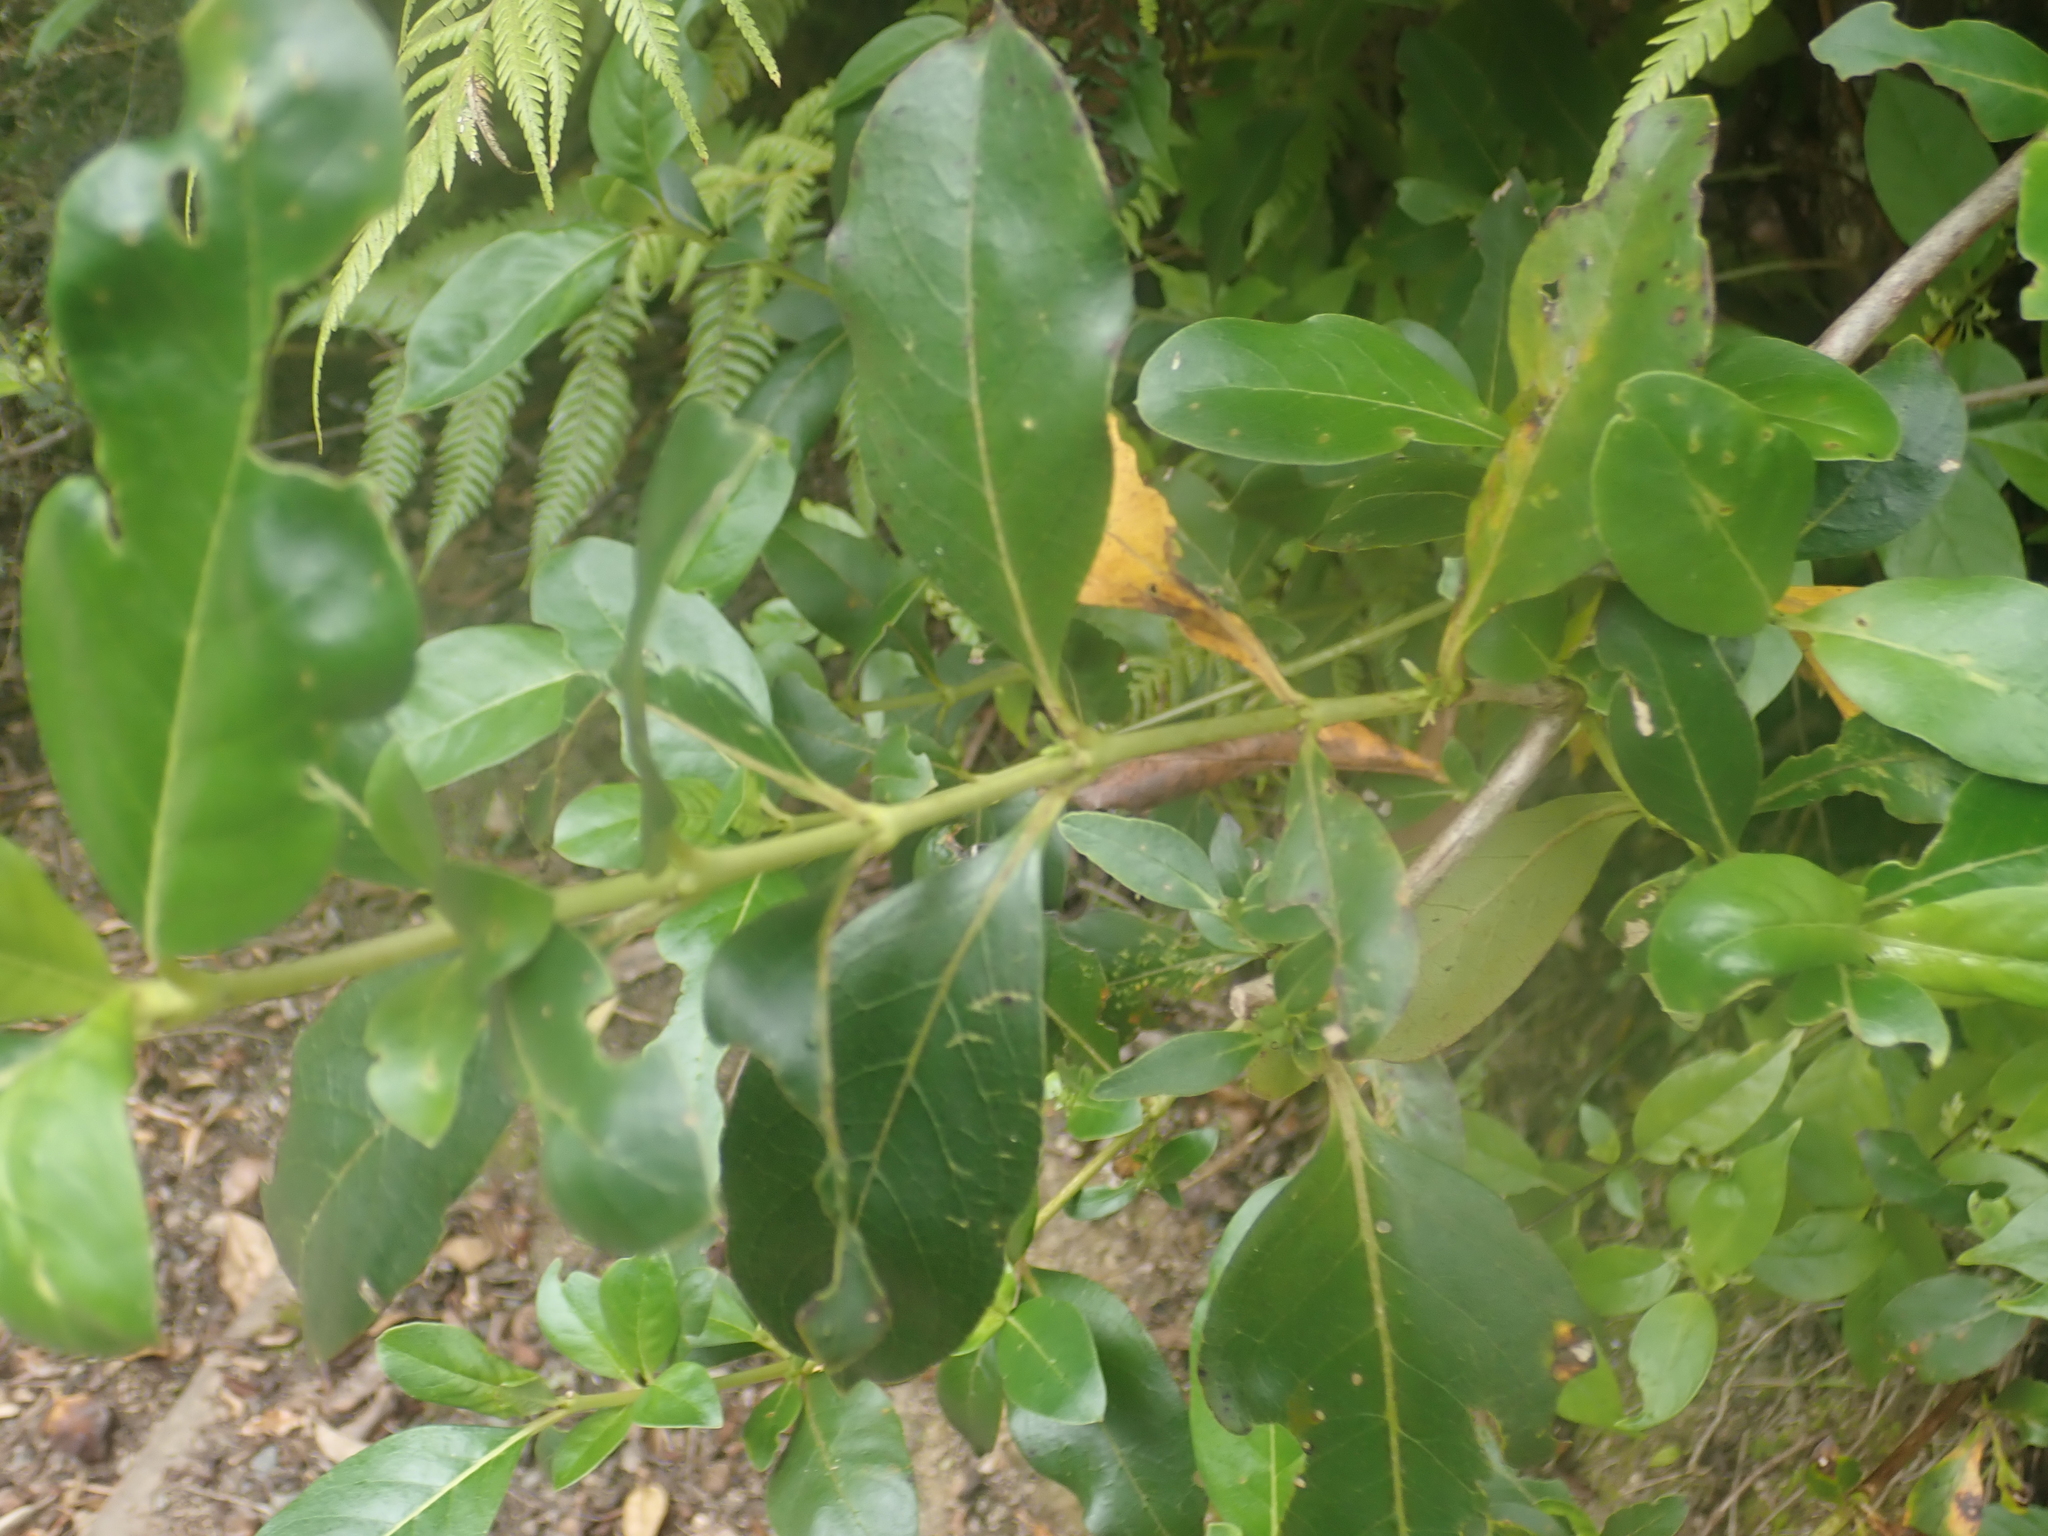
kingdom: Plantae
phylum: Tracheophyta
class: Magnoliopsida
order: Gentianales
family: Rubiaceae
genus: Coprosma
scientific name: Coprosma robusta
